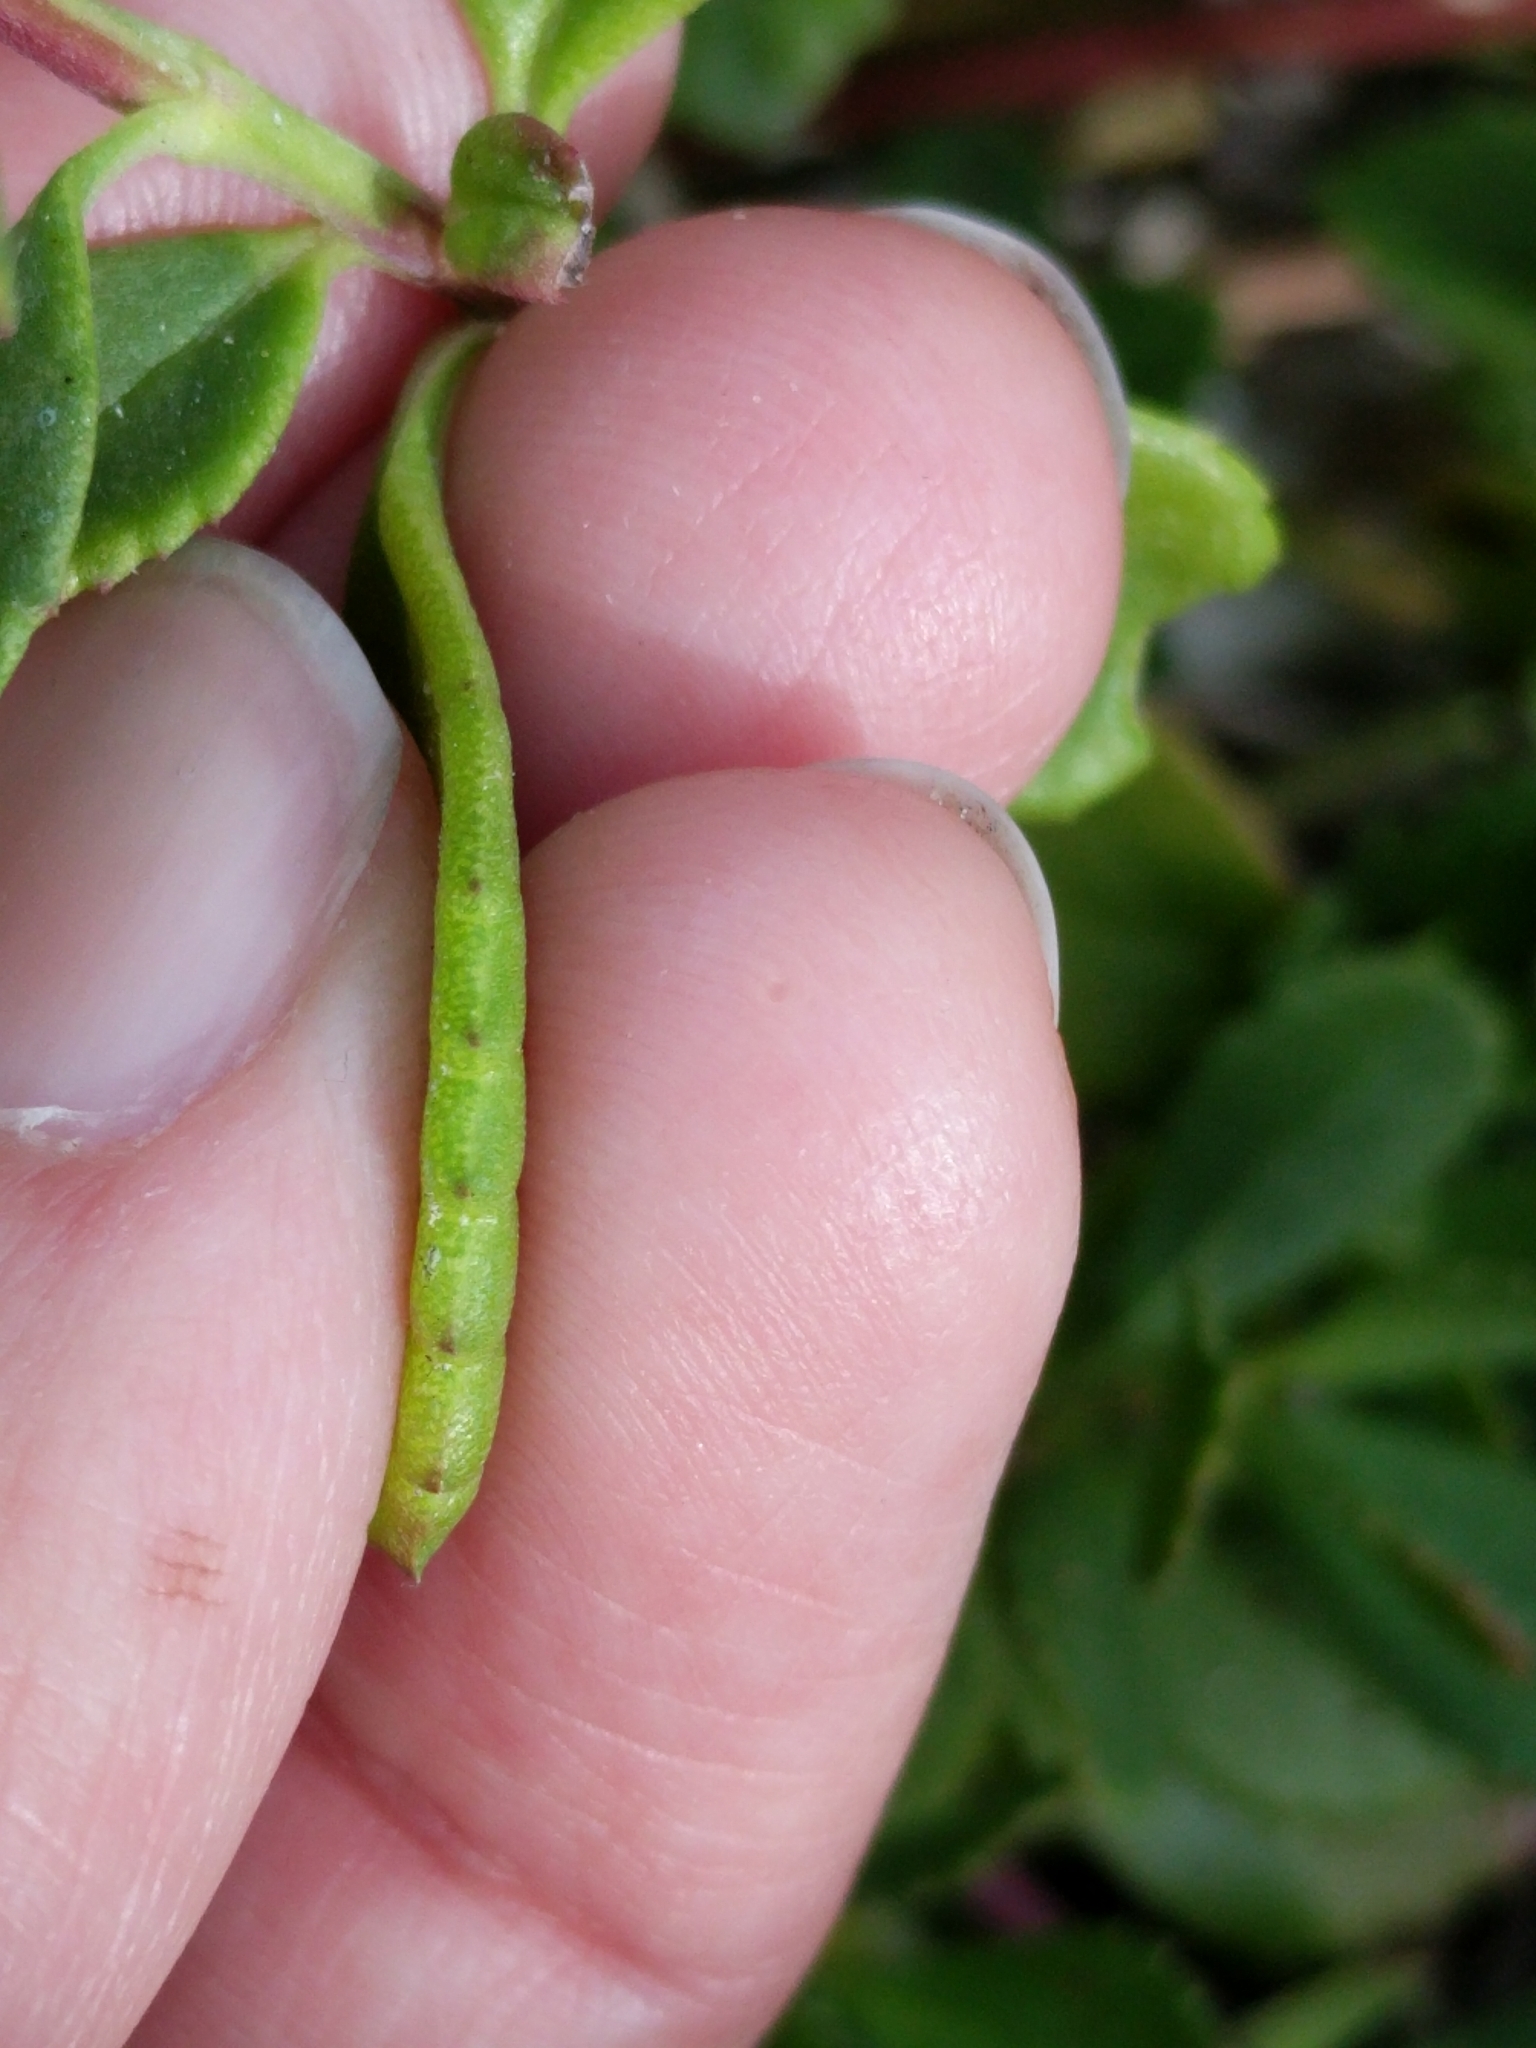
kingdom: Plantae
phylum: Tracheophyta
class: Magnoliopsida
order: Lamiales
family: Verbenaceae
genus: Phyla
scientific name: Phyla nodiflora
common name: Frogfruit
